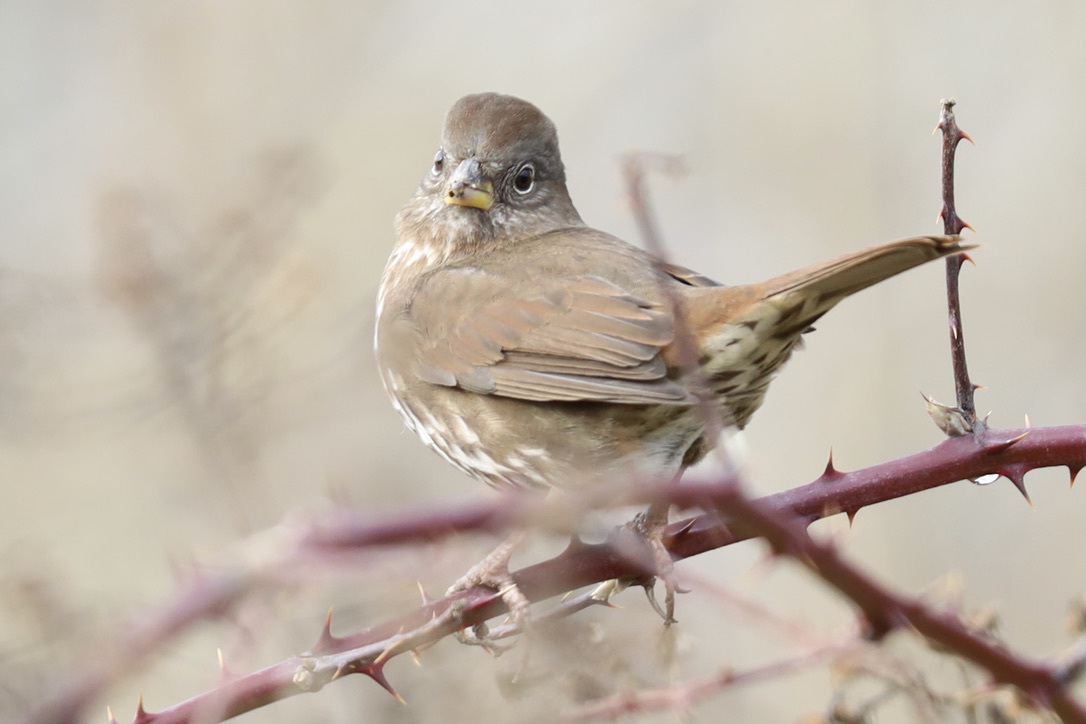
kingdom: Animalia
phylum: Chordata
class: Aves
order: Passeriformes
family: Passerellidae
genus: Passerella
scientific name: Passerella iliaca
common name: Fox sparrow
